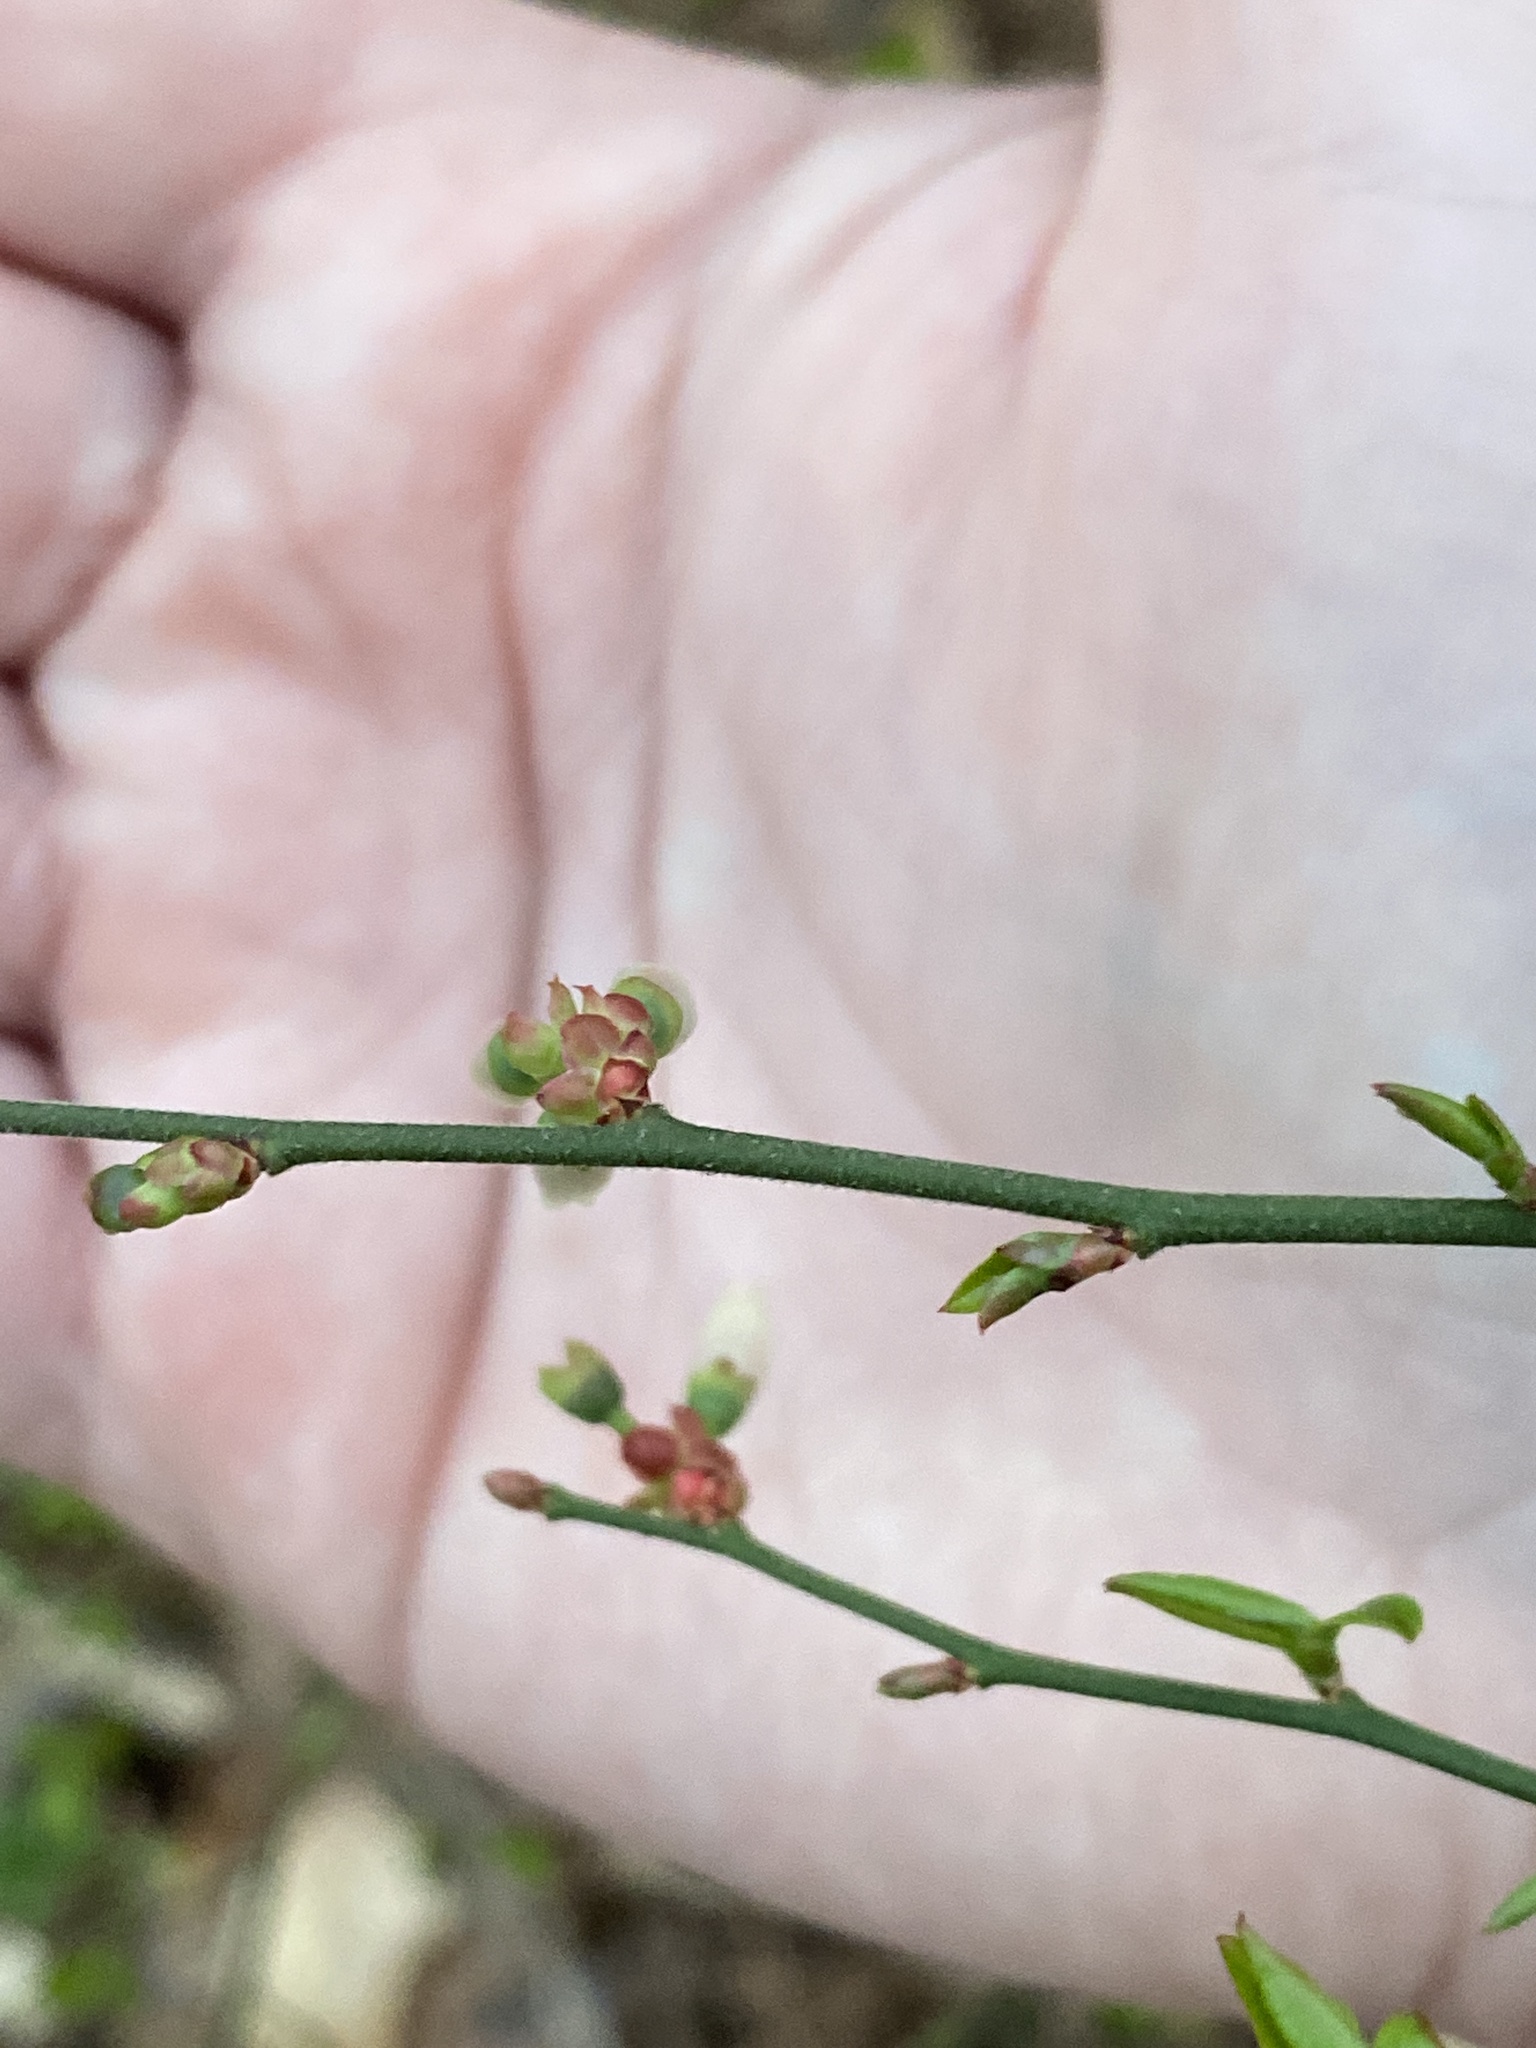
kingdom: Plantae
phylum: Tracheophyta
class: Magnoliopsida
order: Ericales
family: Ericaceae
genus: Vaccinium
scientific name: Vaccinium corymbosum
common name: Blueberry
